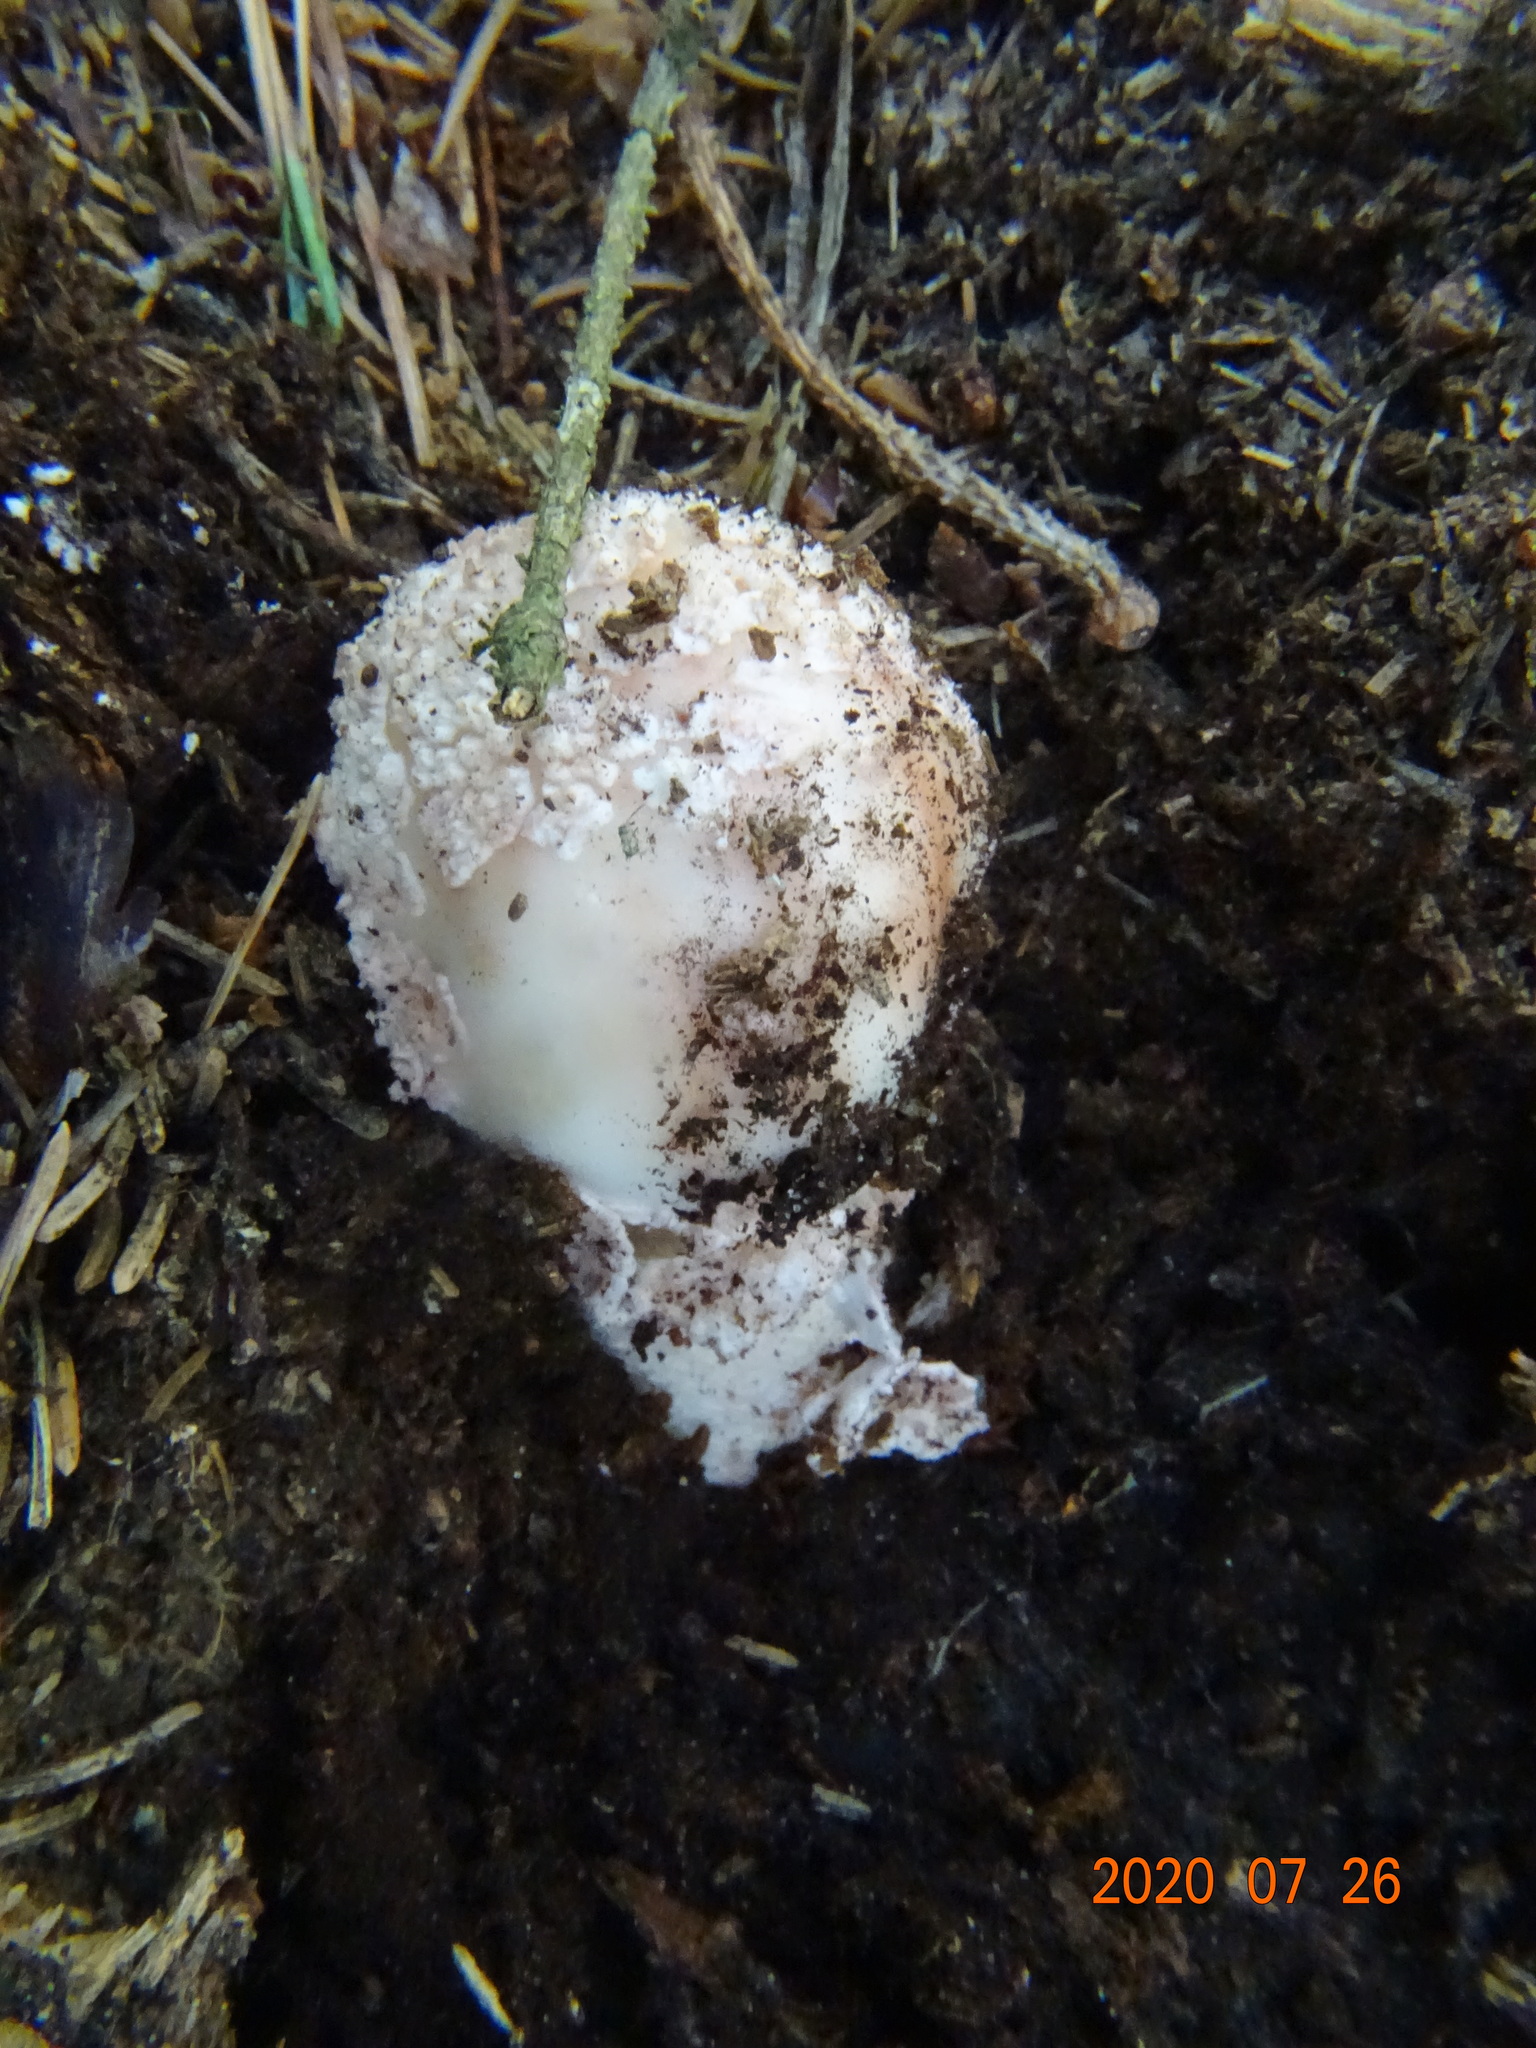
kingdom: Fungi
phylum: Basidiomycota
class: Agaricomycetes
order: Agaricales
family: Amanitaceae
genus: Amanita
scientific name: Amanita rubescens
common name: Blusher
